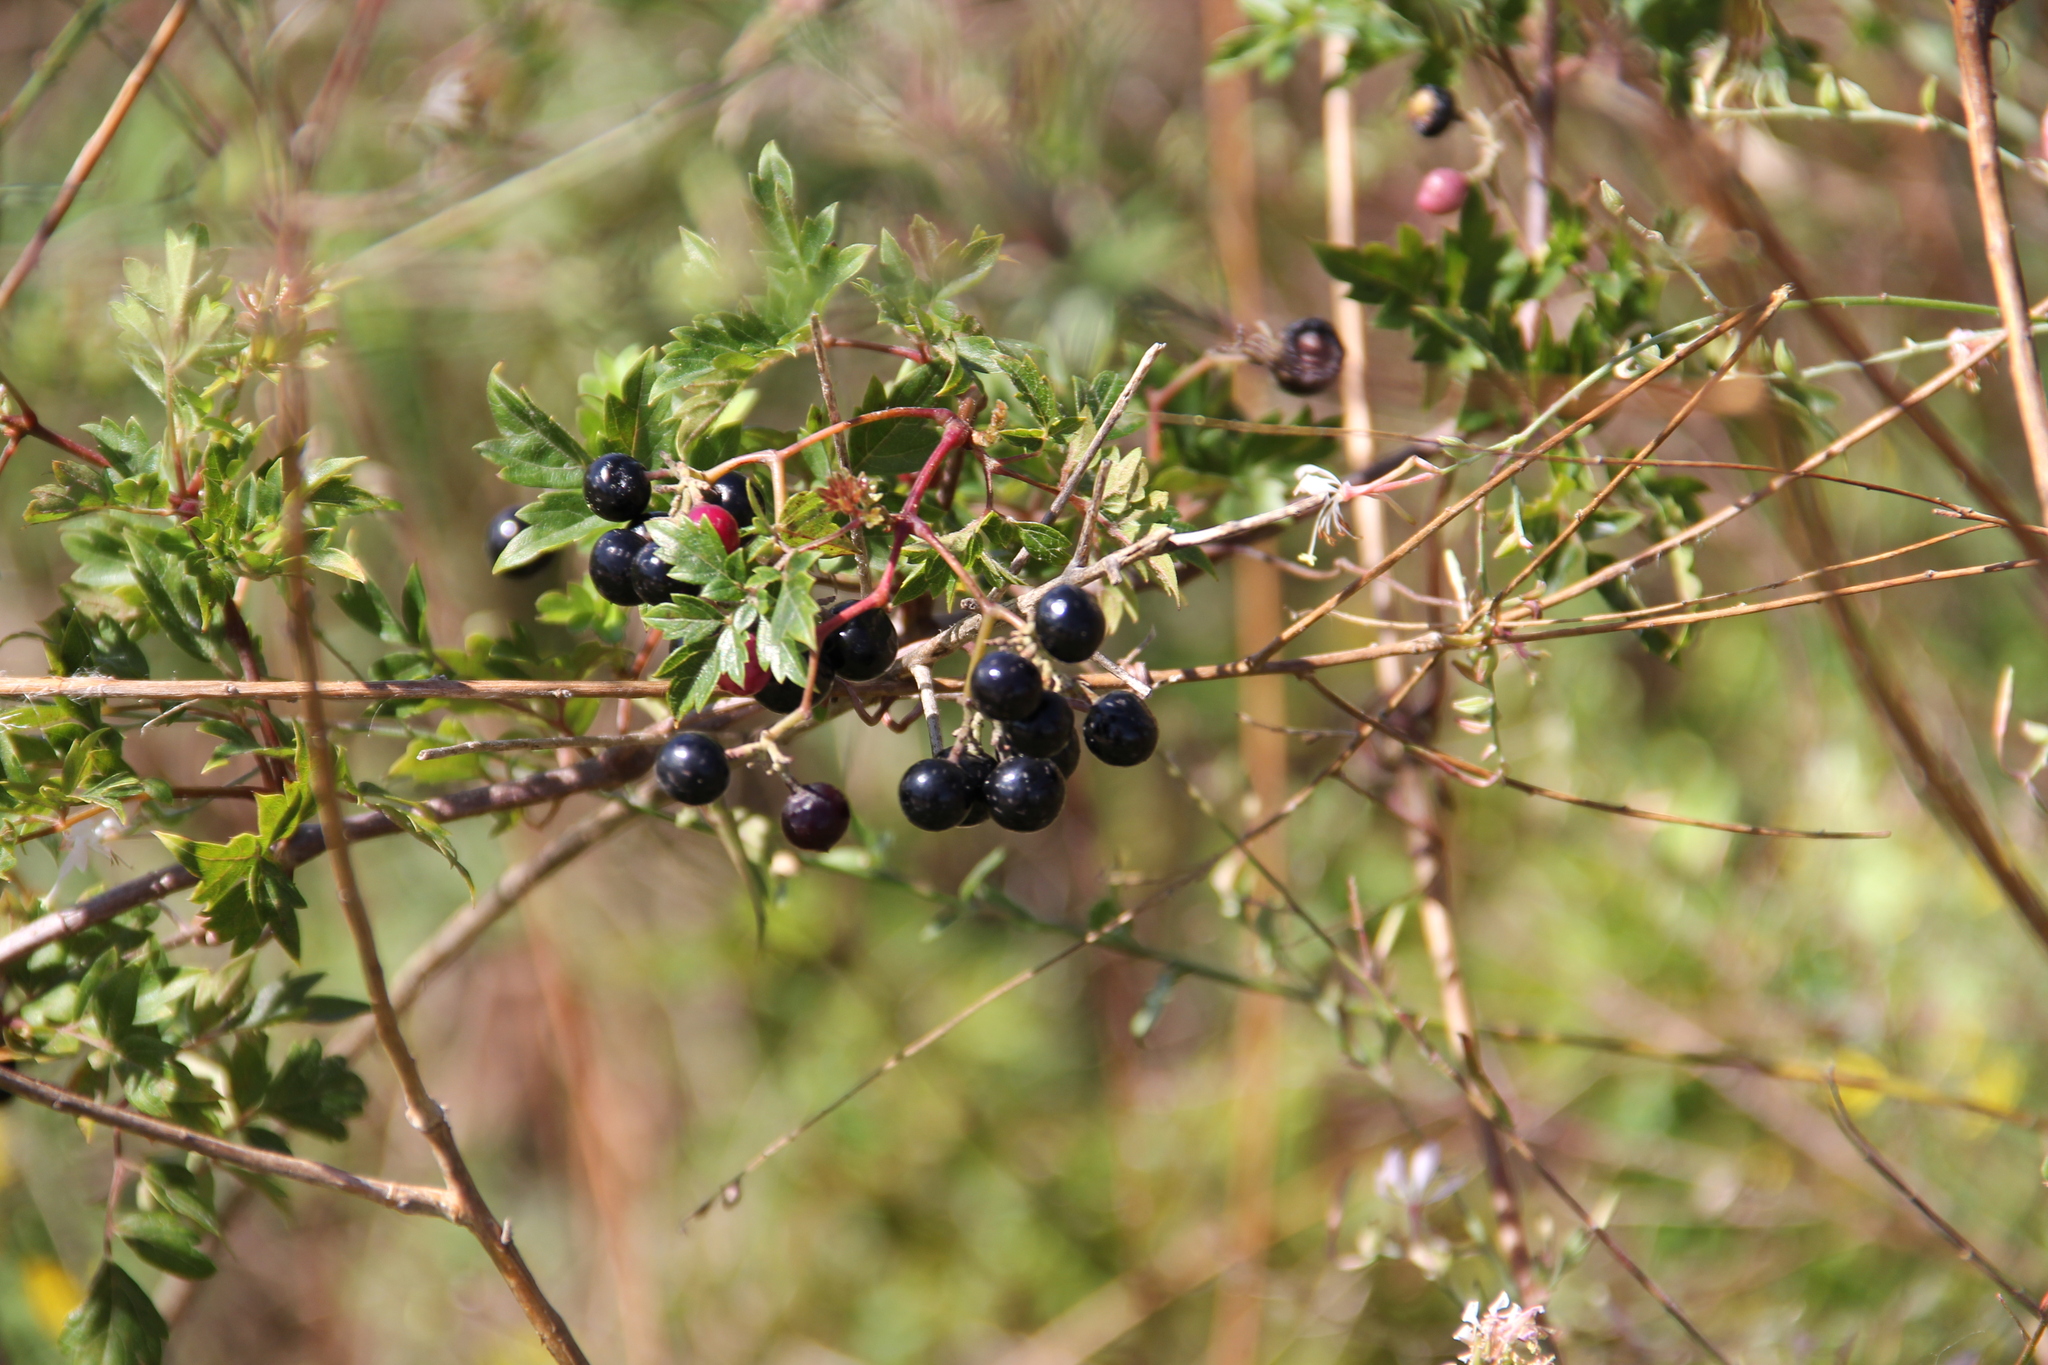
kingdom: Plantae
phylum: Tracheophyta
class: Magnoliopsida
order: Vitales
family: Vitaceae
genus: Nekemias
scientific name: Nekemias arborea
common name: Peppervine
